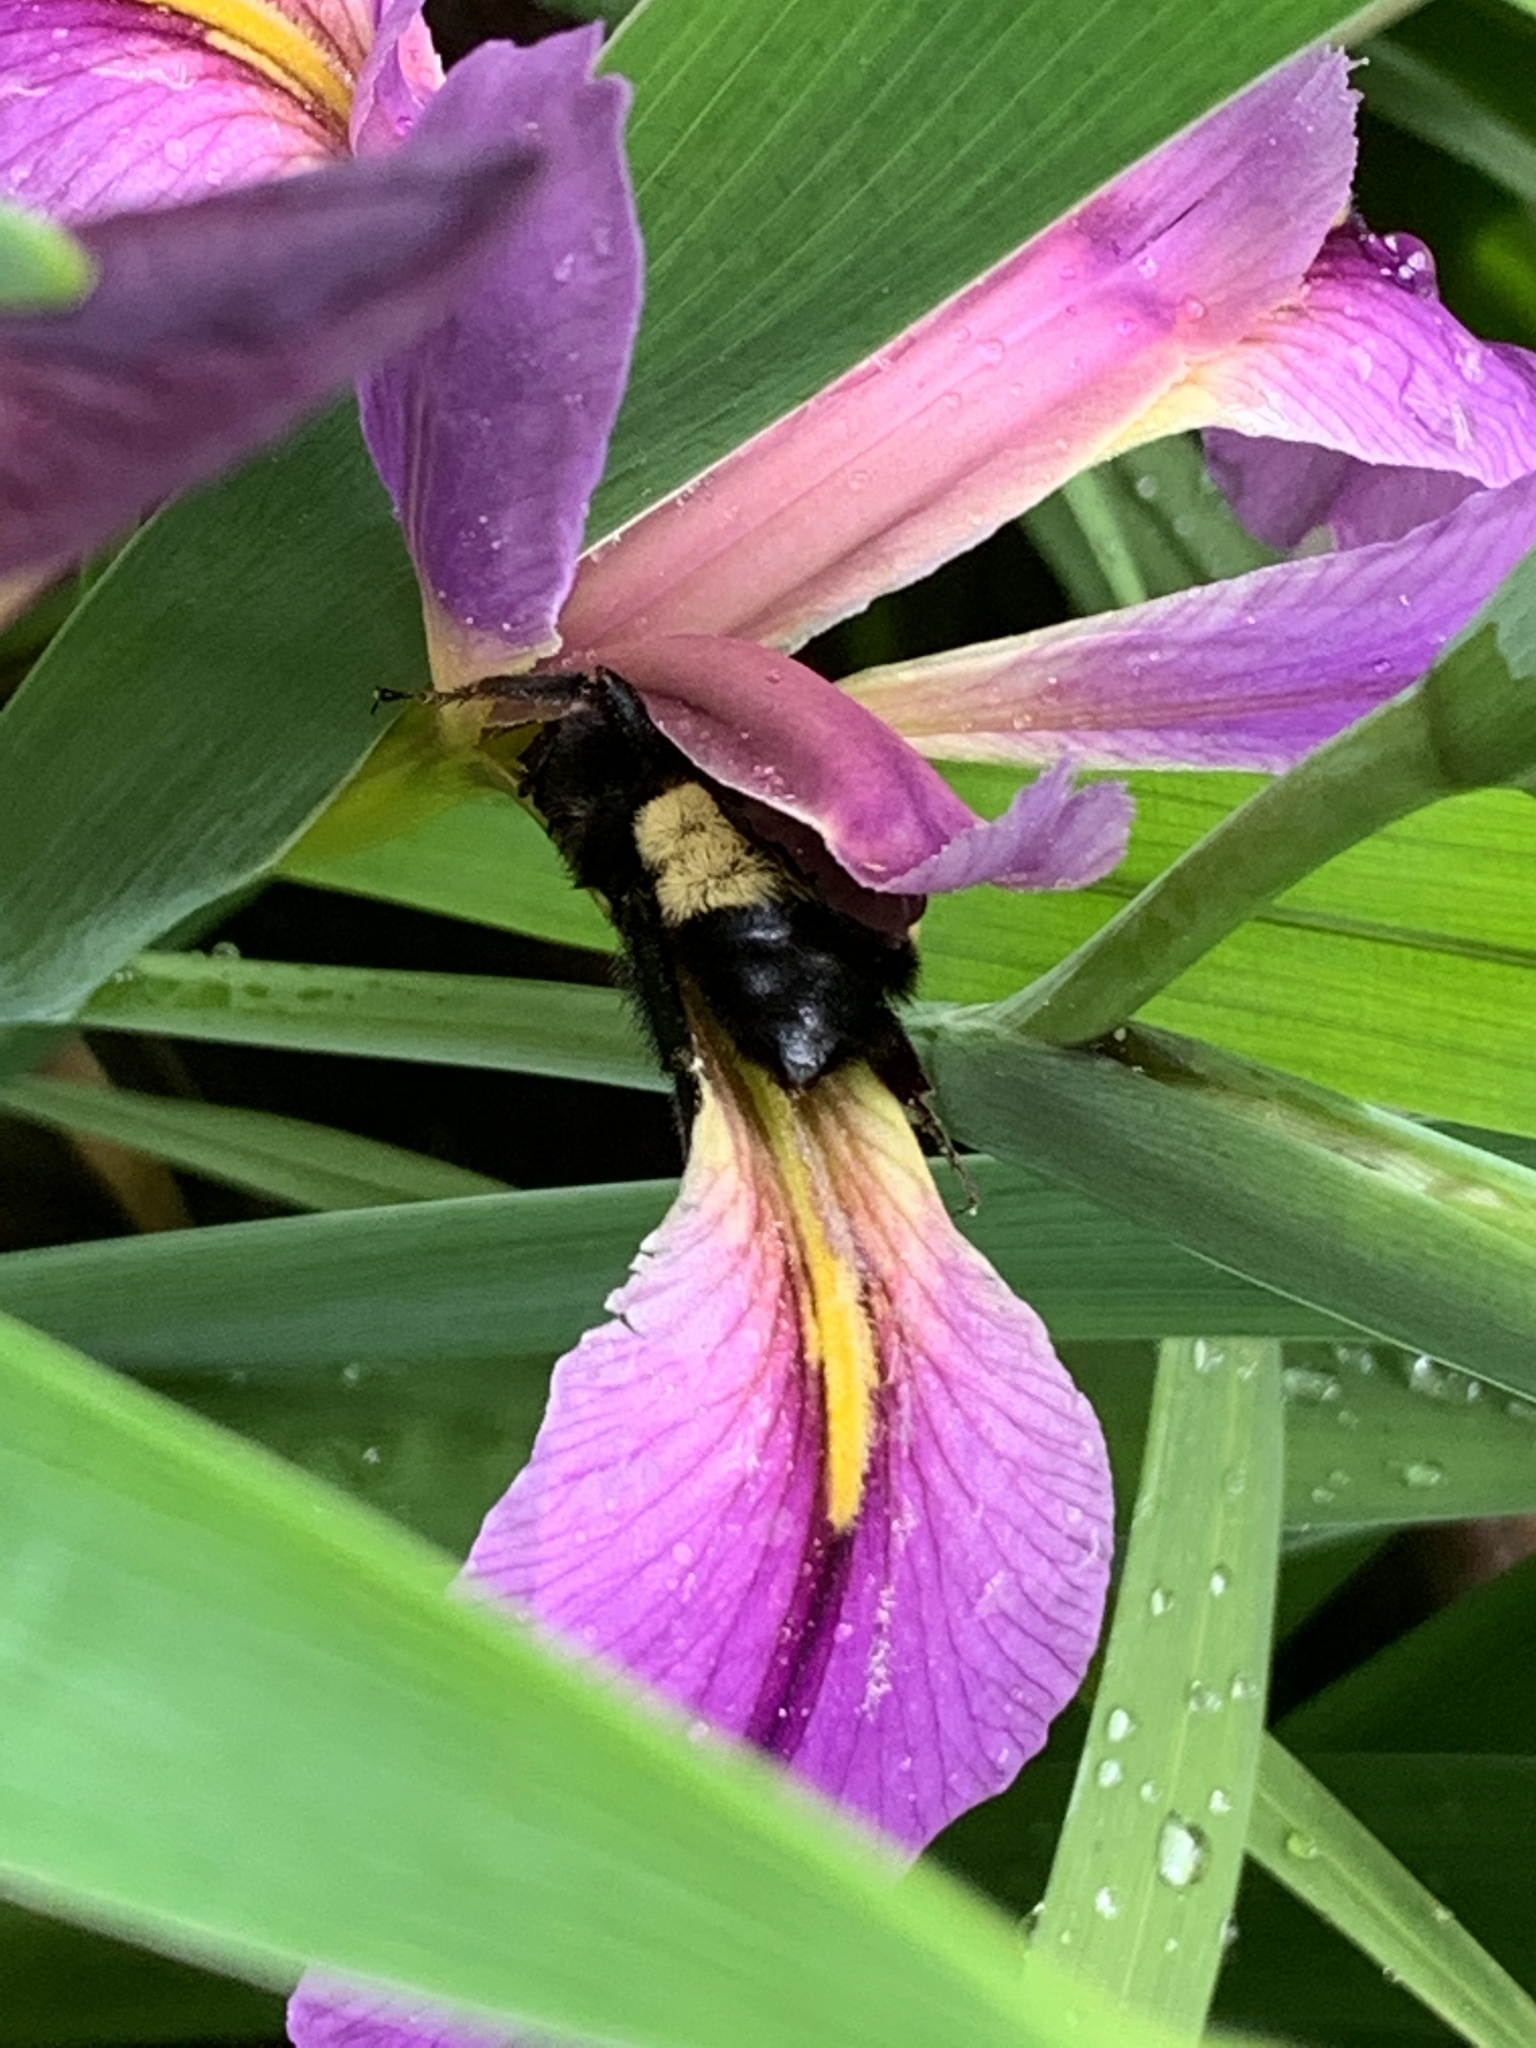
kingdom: Animalia
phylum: Arthropoda
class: Insecta
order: Hymenoptera
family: Apidae
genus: Bombus
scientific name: Bombus pensylvanicus
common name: Bumble bee
